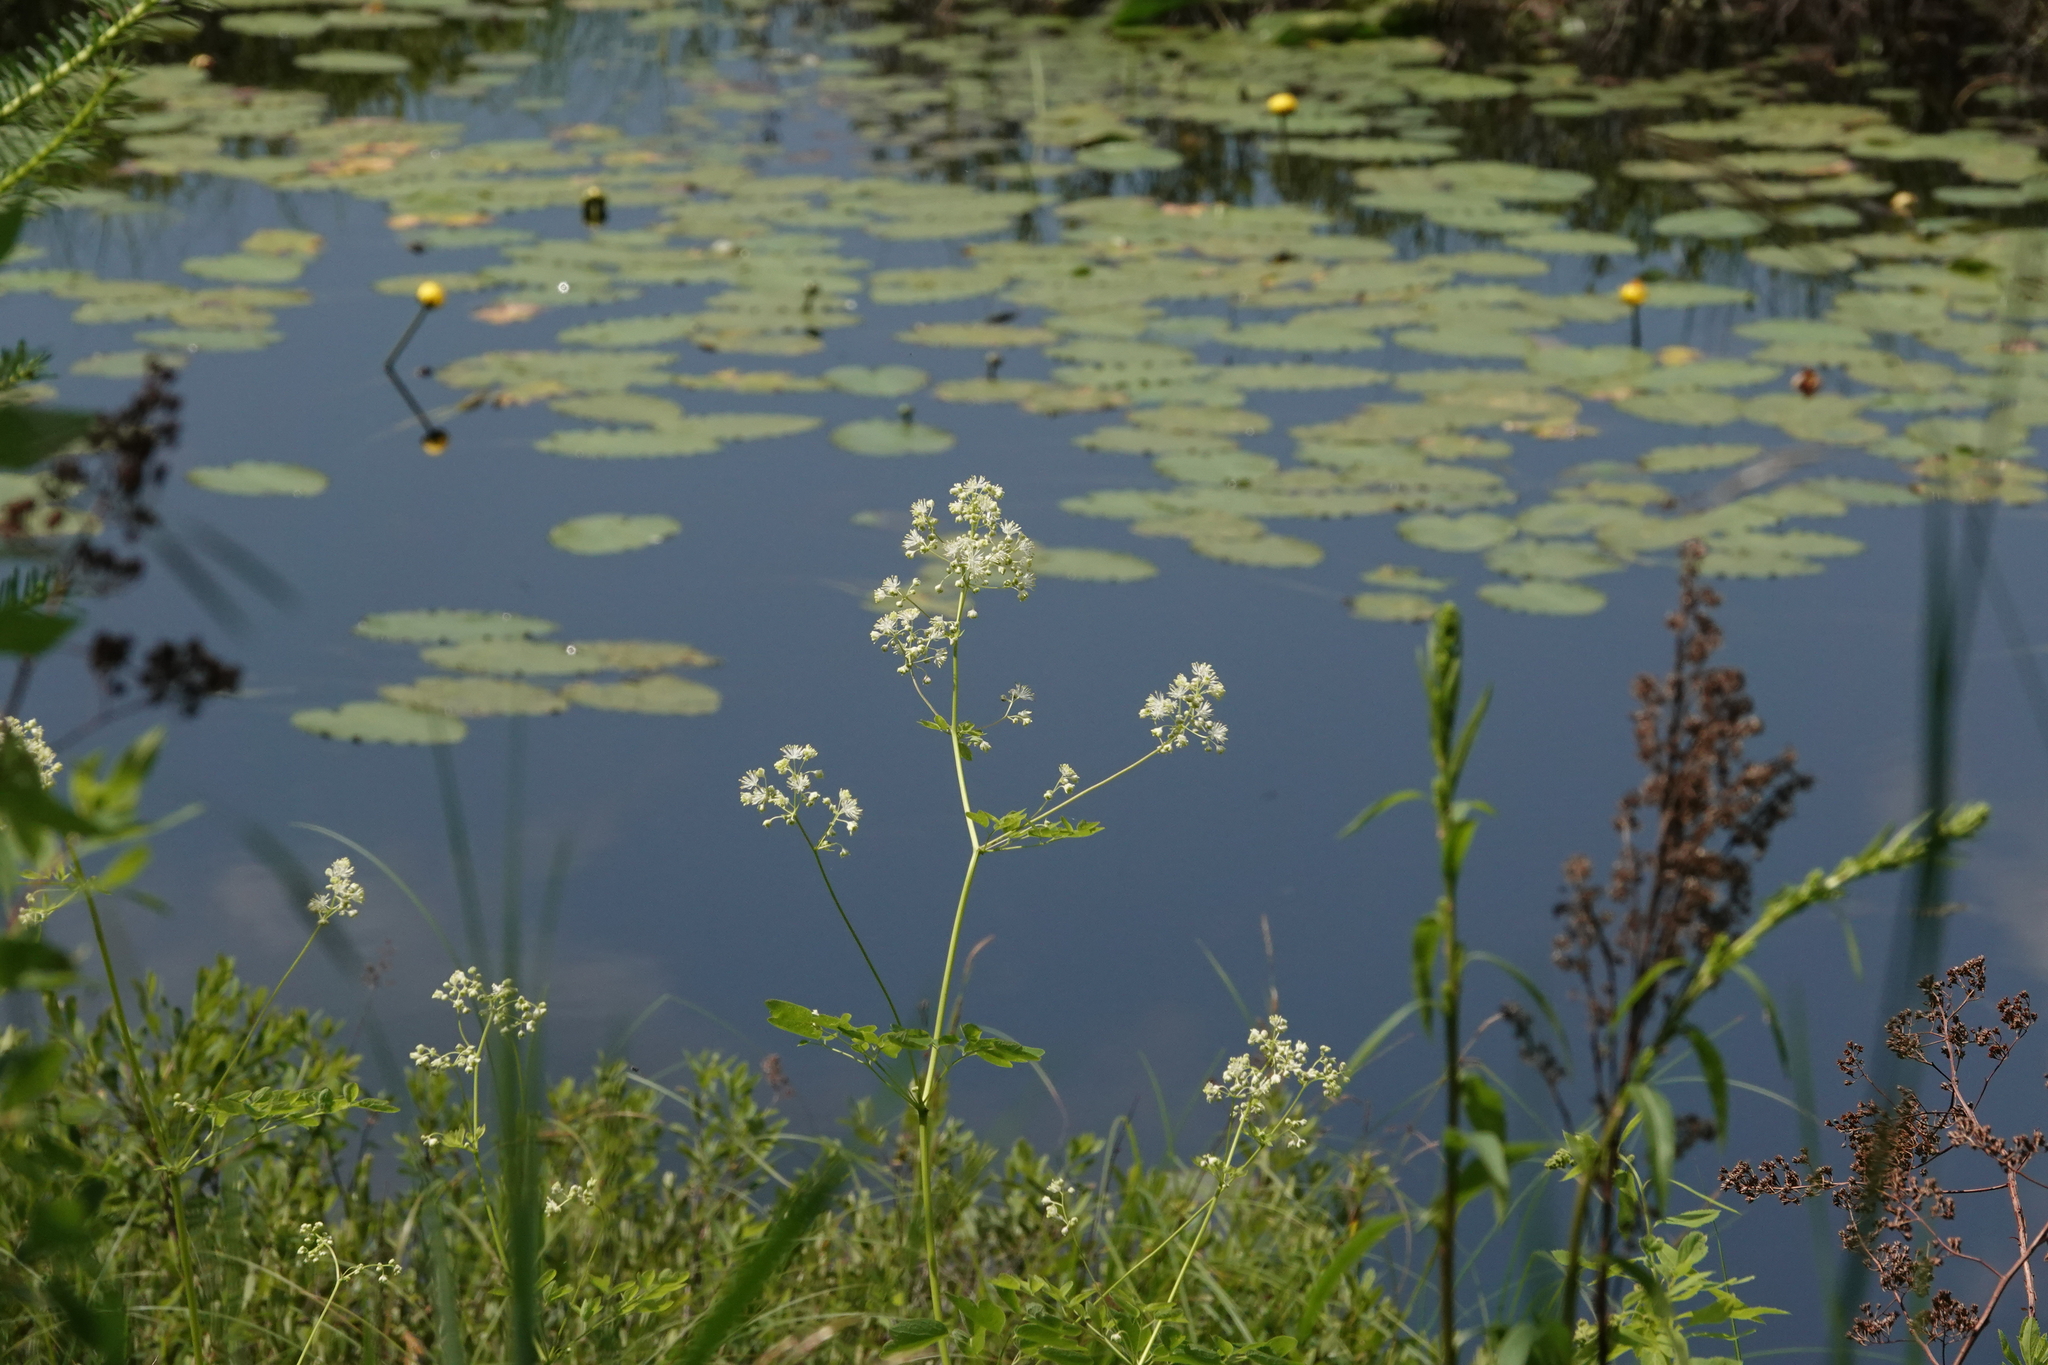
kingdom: Plantae
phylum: Tracheophyta
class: Magnoliopsida
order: Ranunculales
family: Ranunculaceae
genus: Thalictrum
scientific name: Thalictrum pubescens
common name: King-of-the-meadow
